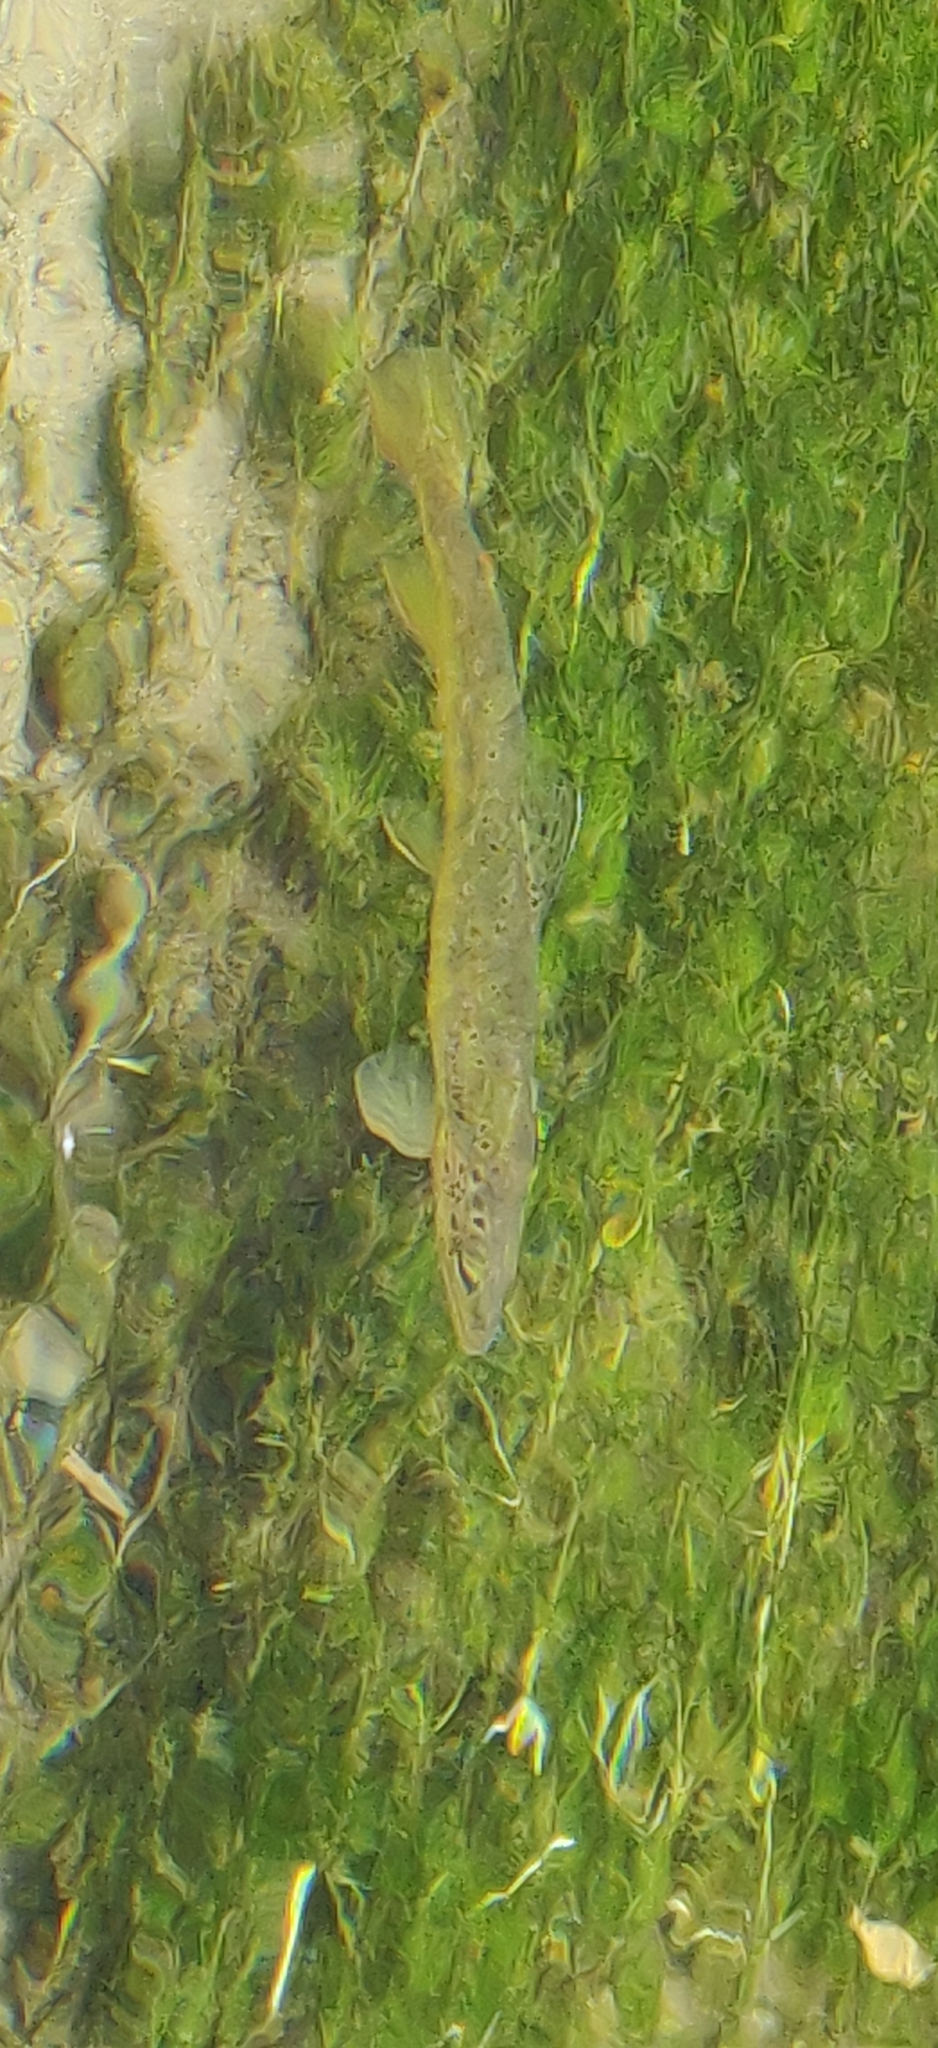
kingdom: Animalia
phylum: Chordata
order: Salmoniformes
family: Salmonidae
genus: Salmo
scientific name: Salmo trutta
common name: Brown trout
